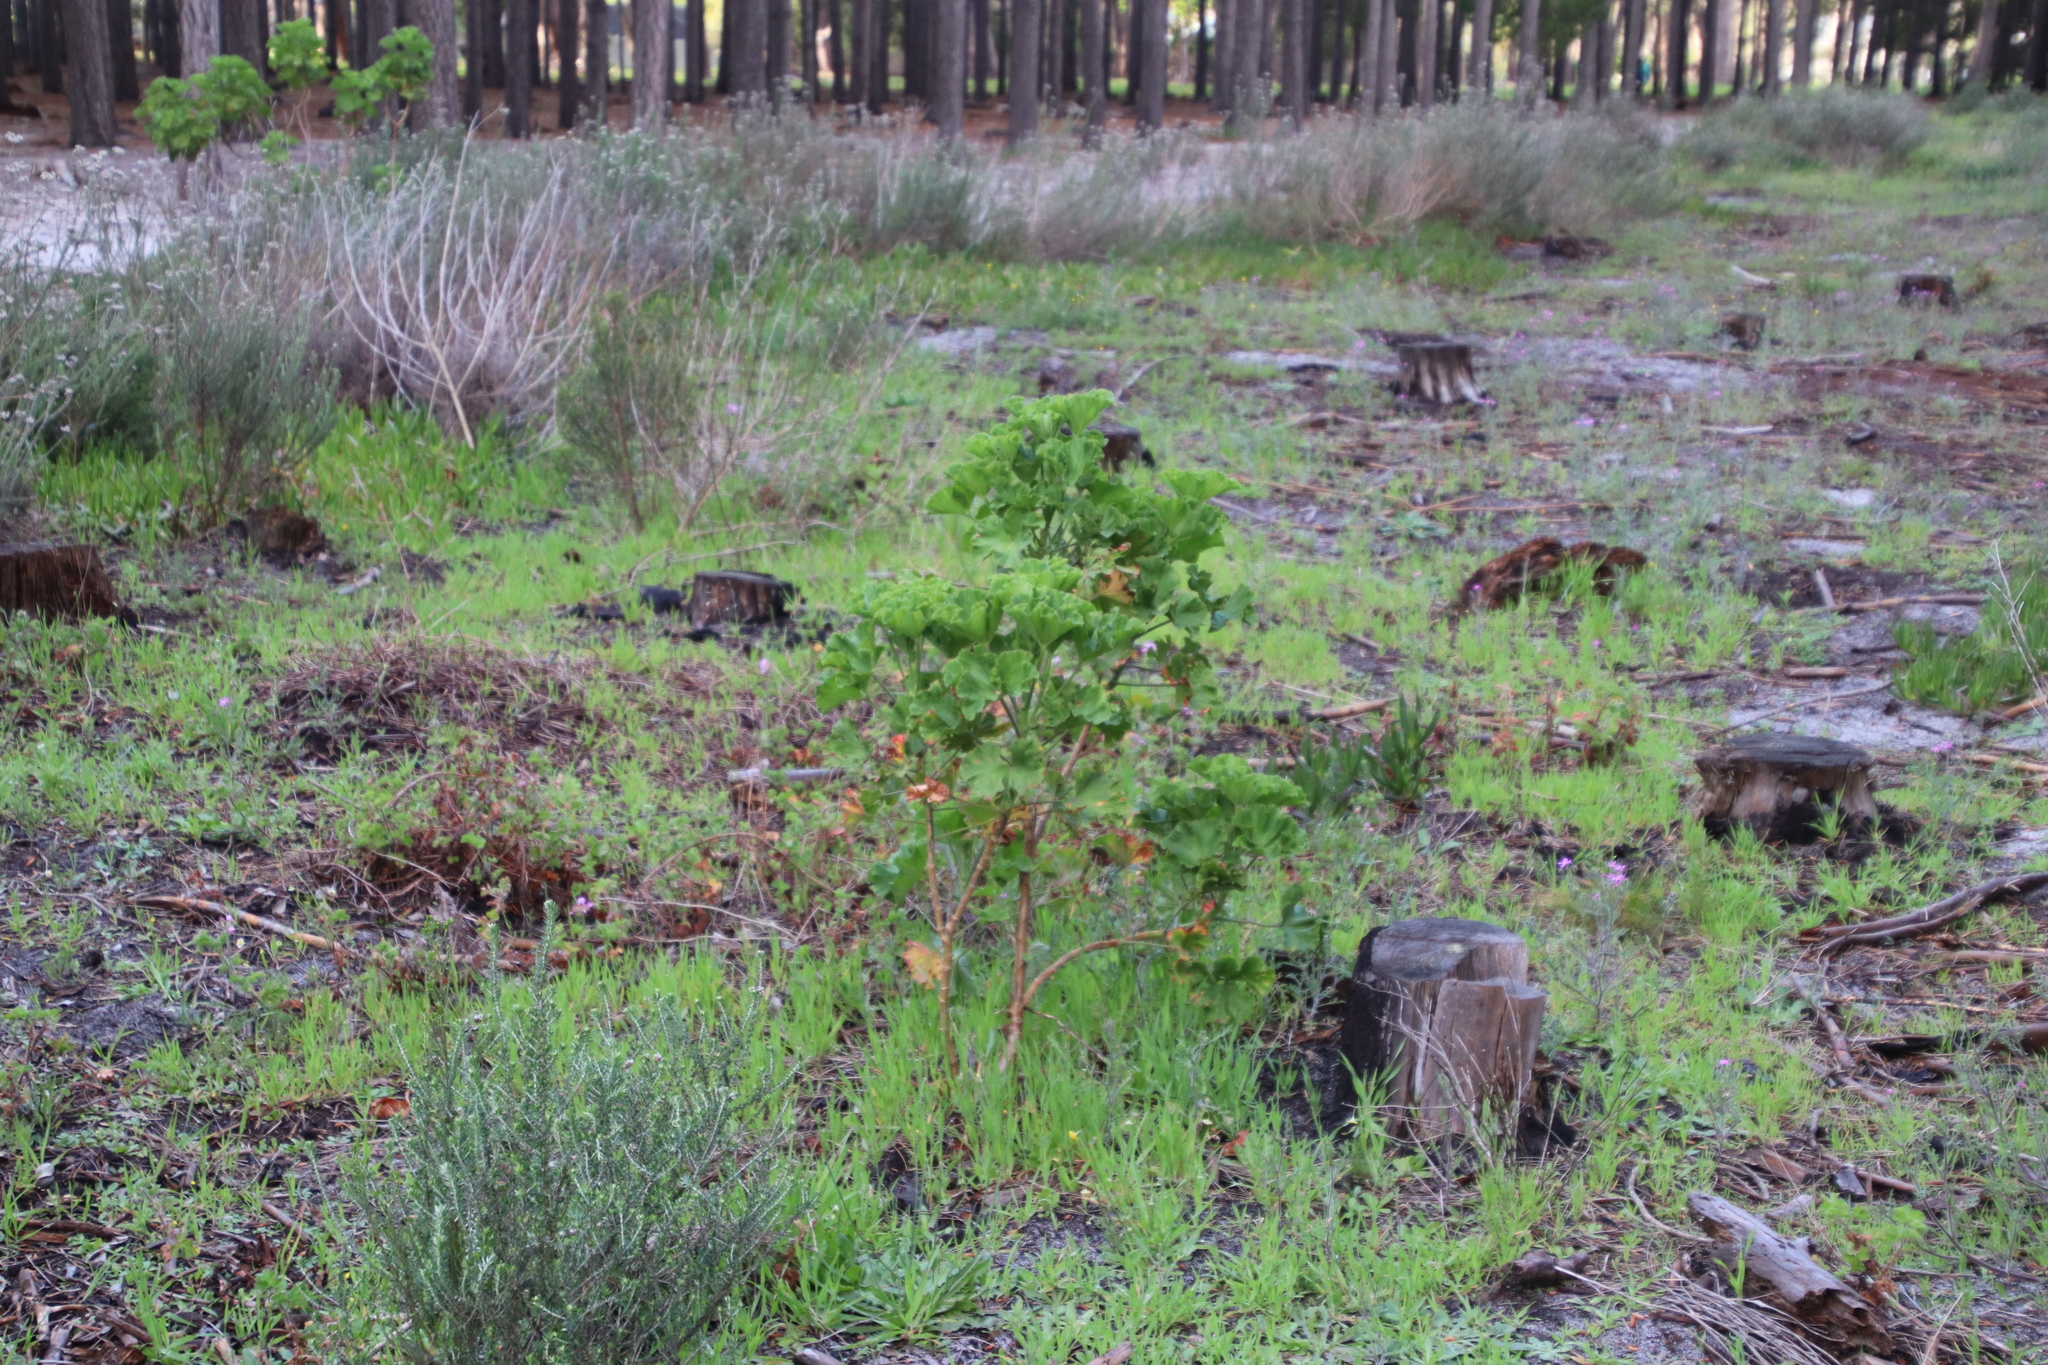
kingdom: Plantae
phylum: Tracheophyta
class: Magnoliopsida
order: Geraniales
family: Geraniaceae
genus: Pelargonium
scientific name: Pelargonium cucullatum
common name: Tree pelargonium
